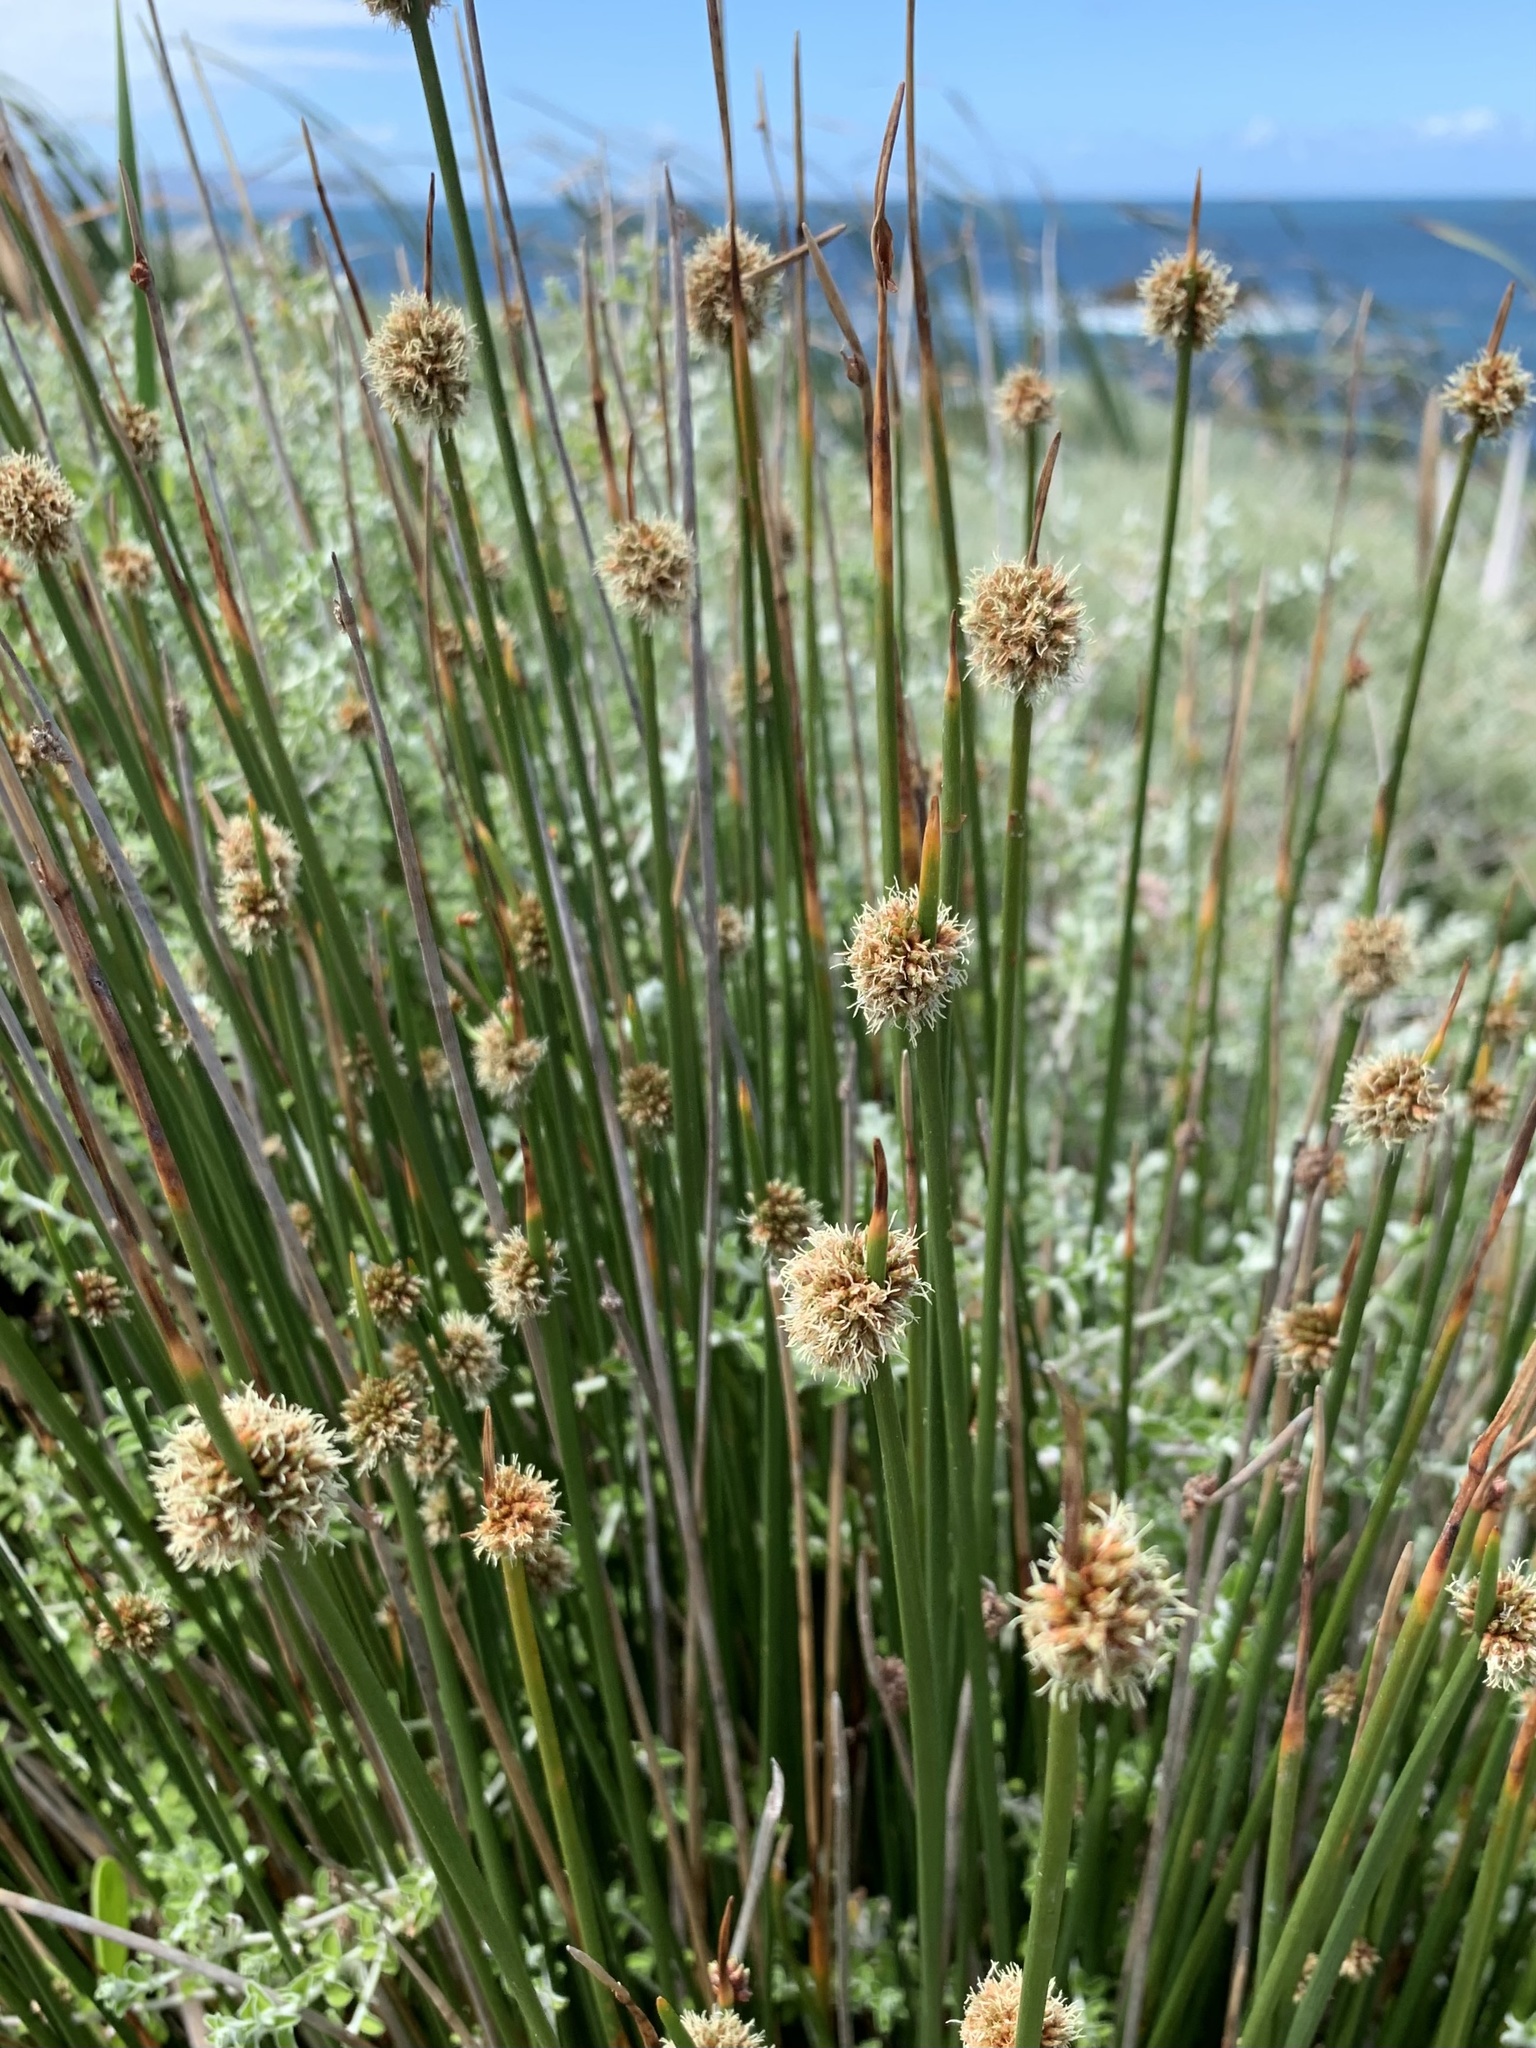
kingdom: Plantae
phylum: Tracheophyta
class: Liliopsida
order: Poales
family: Cyperaceae
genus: Ficinia
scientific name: Ficinia nodosa
